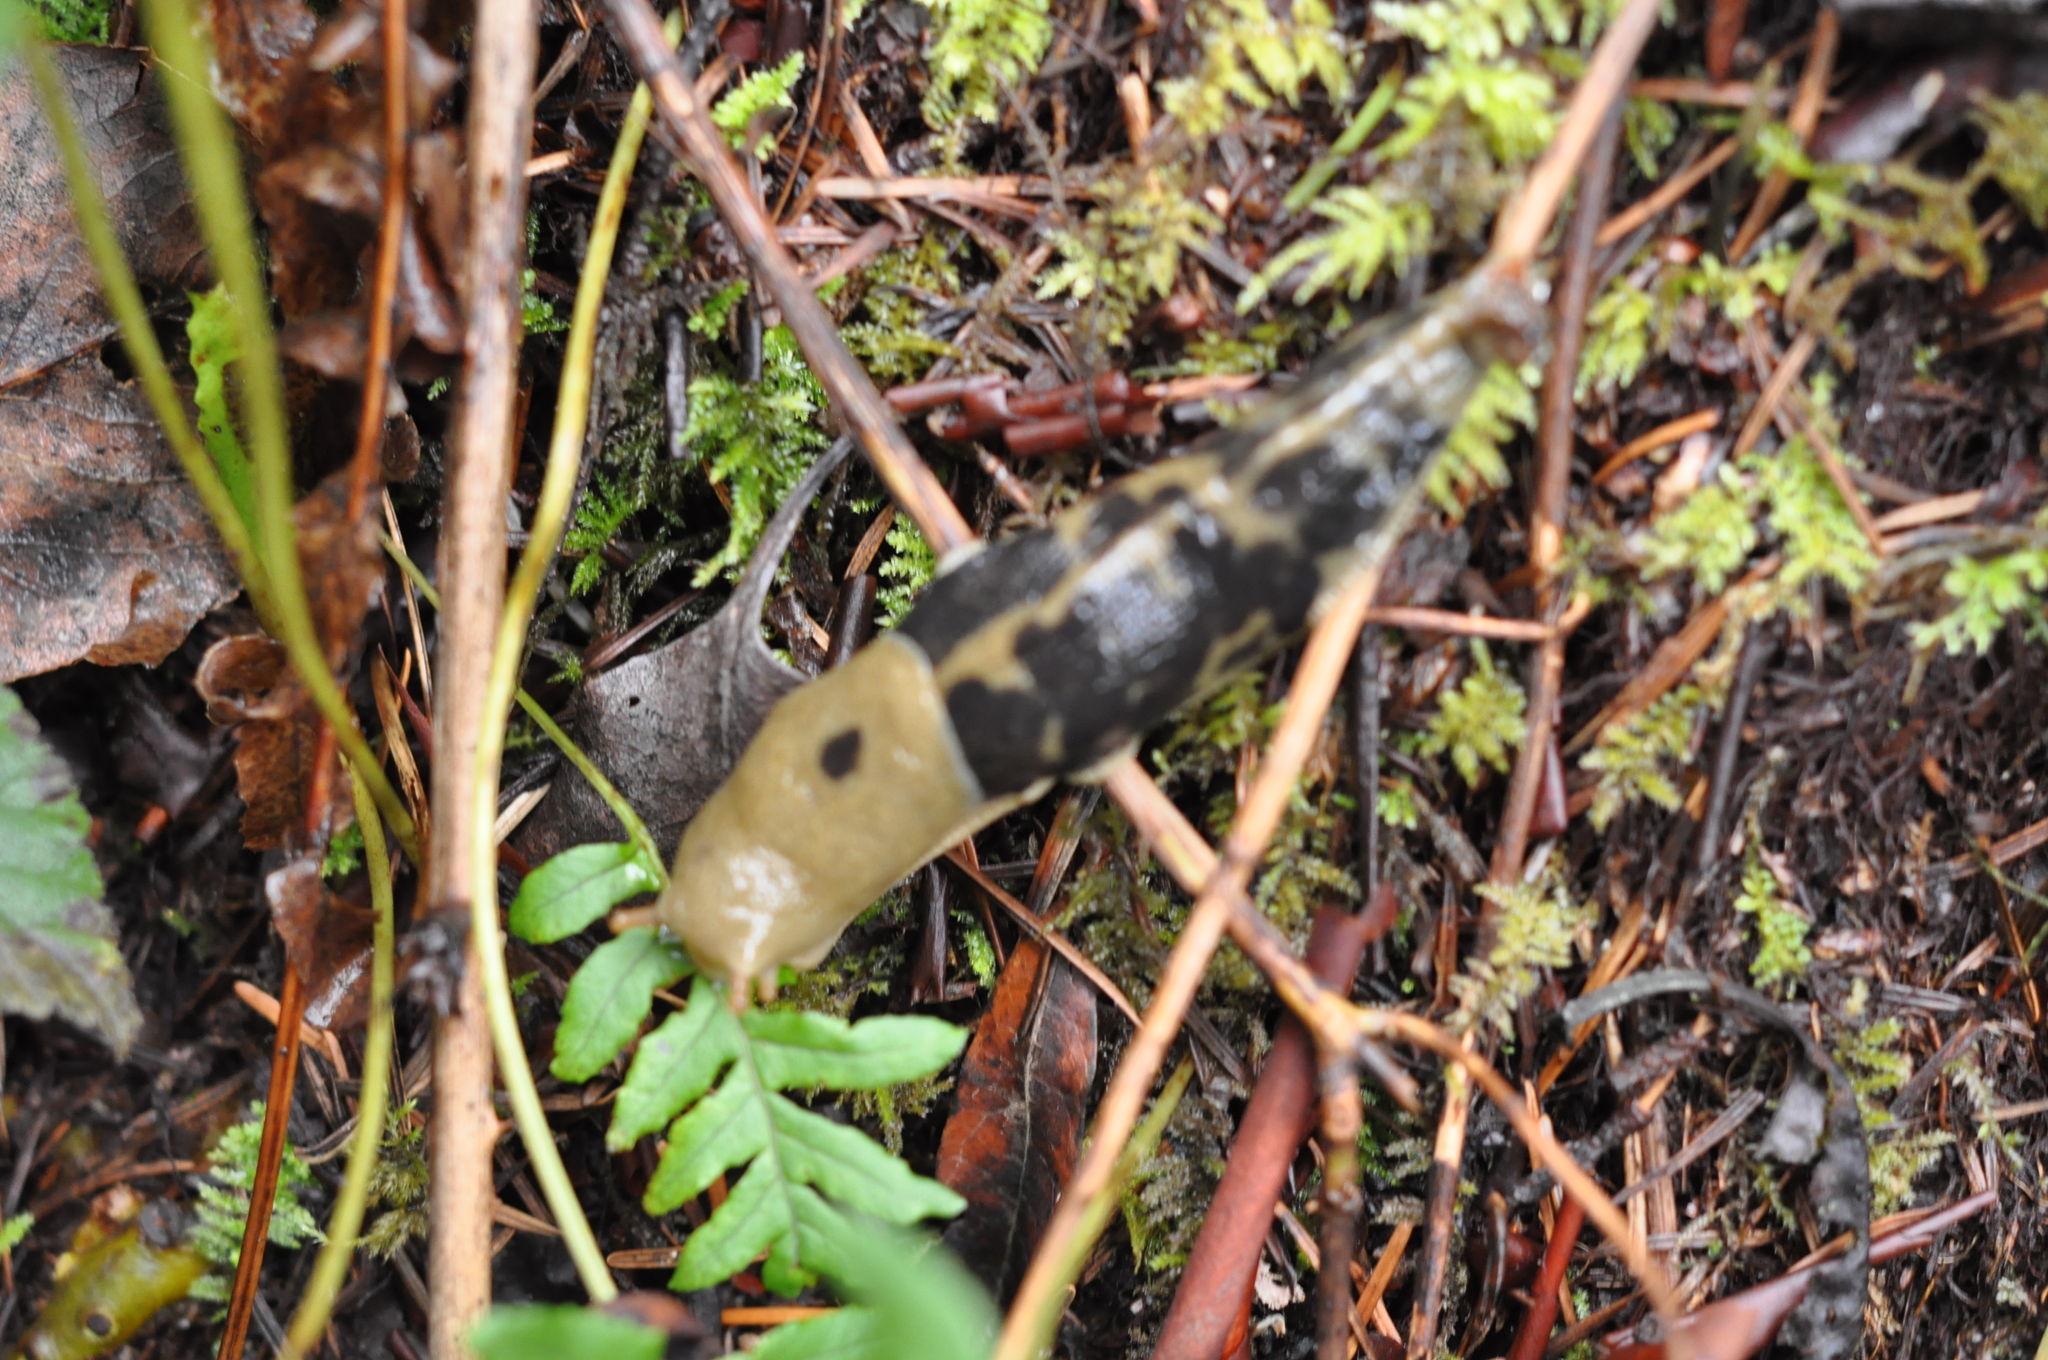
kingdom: Animalia
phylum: Mollusca
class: Gastropoda
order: Stylommatophora
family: Ariolimacidae
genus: Ariolimax
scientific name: Ariolimax columbianus
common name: Pacific banana slug
